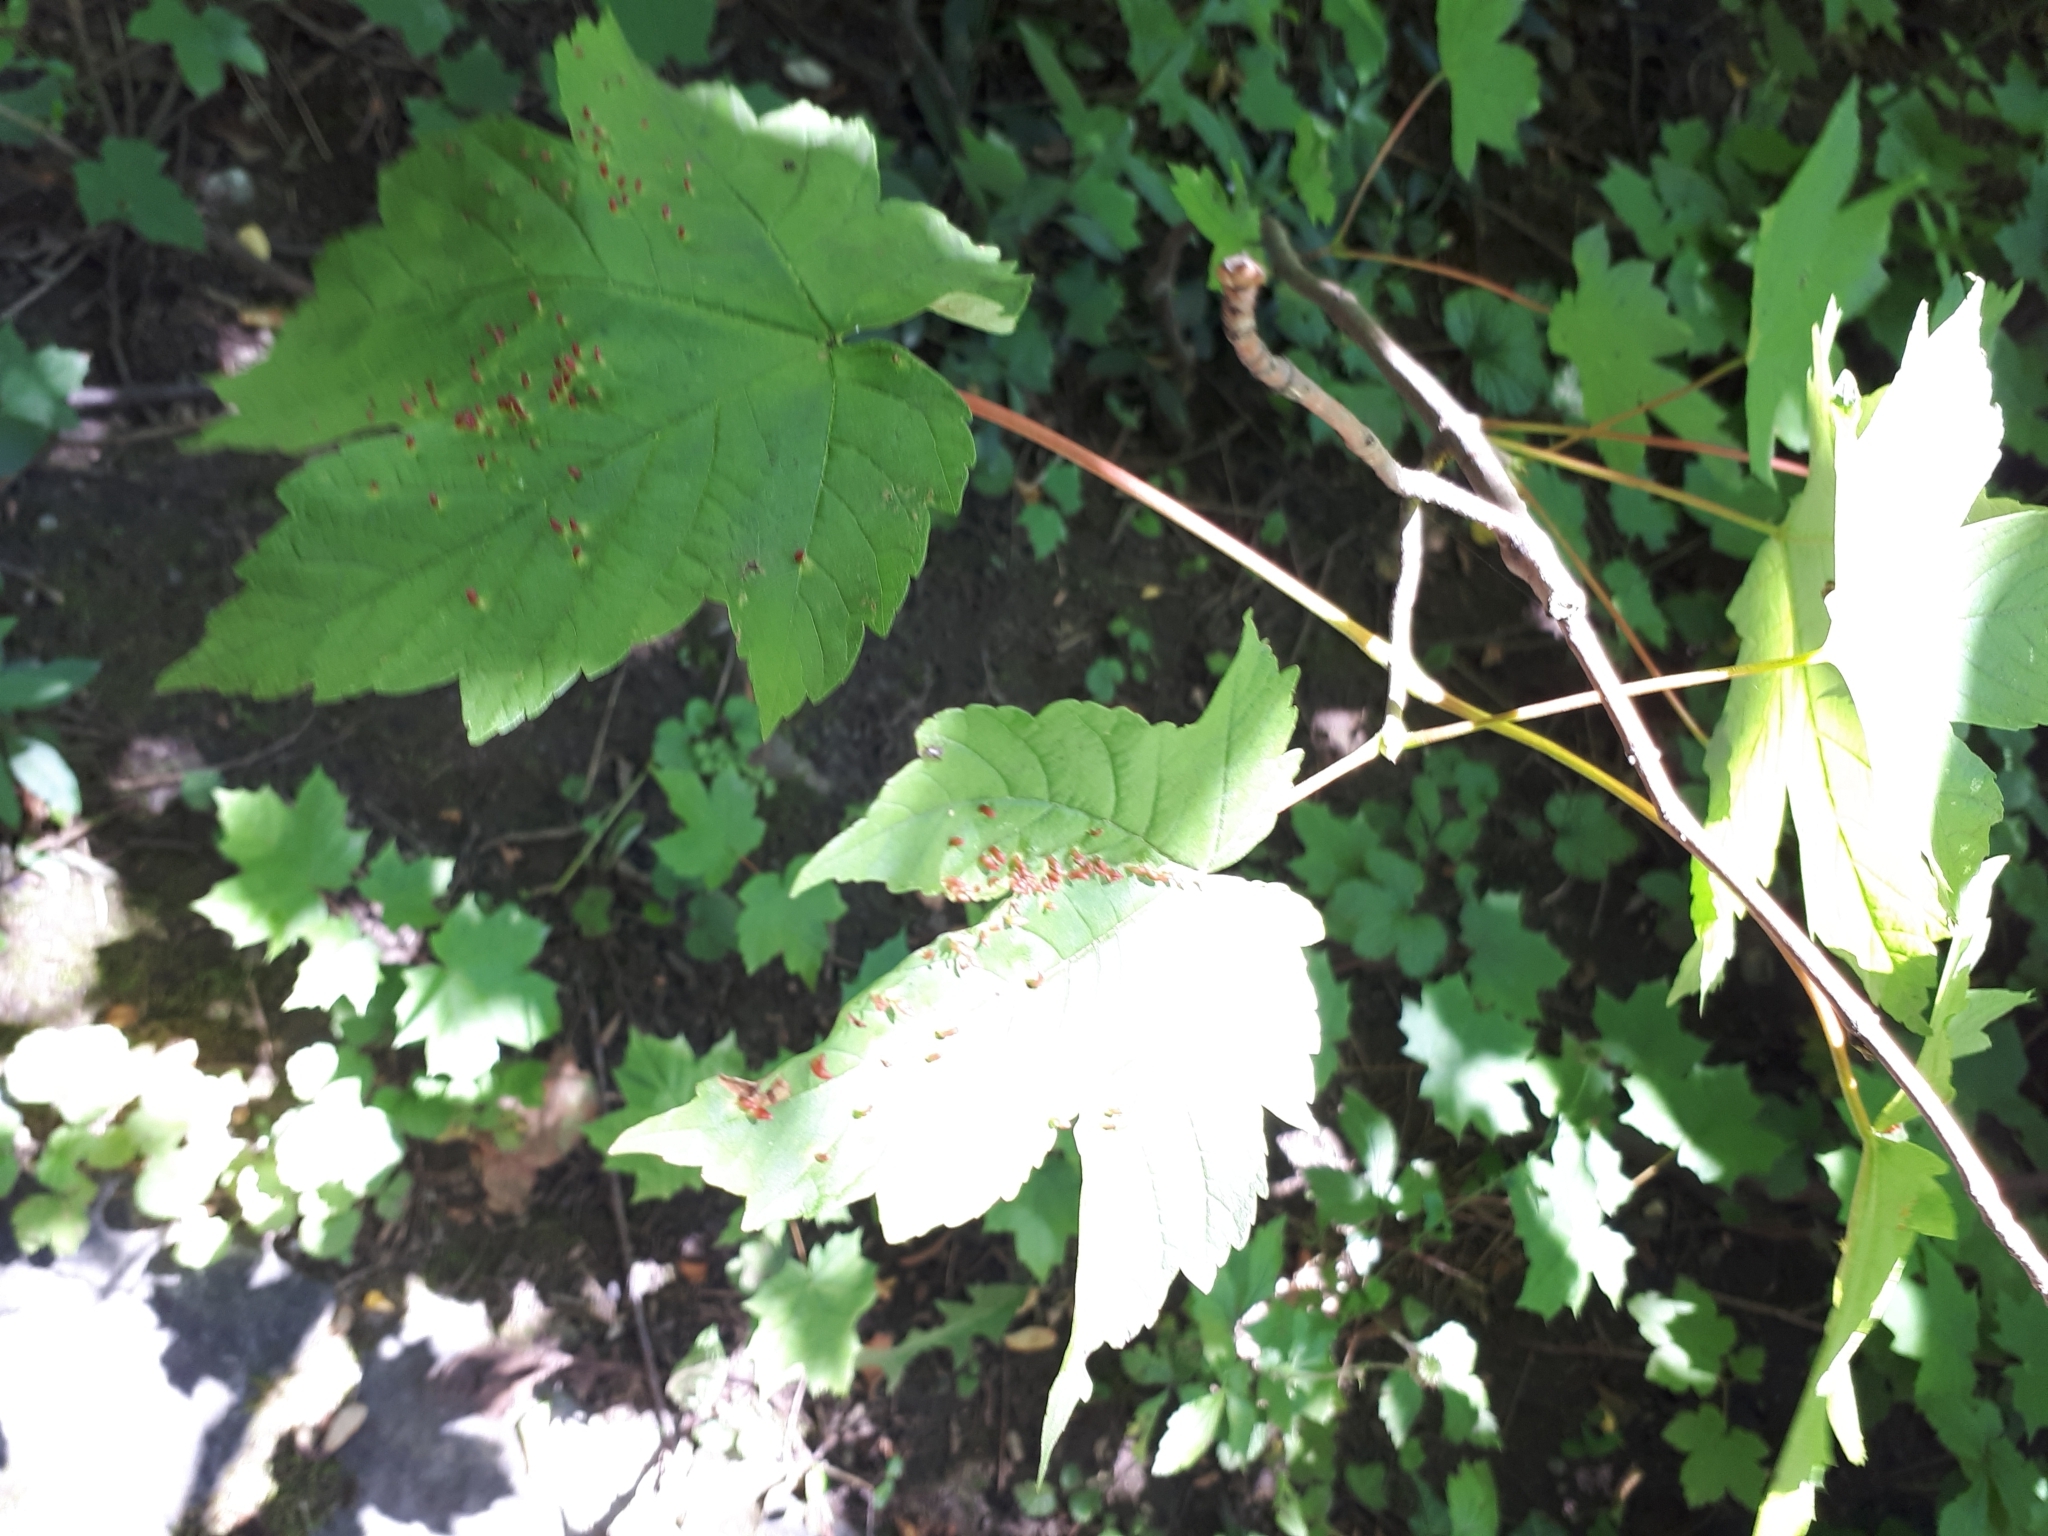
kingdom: Plantae
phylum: Tracheophyta
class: Magnoliopsida
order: Sapindales
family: Sapindaceae
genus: Acer
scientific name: Acer pseudoplatanus
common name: Sycamore
